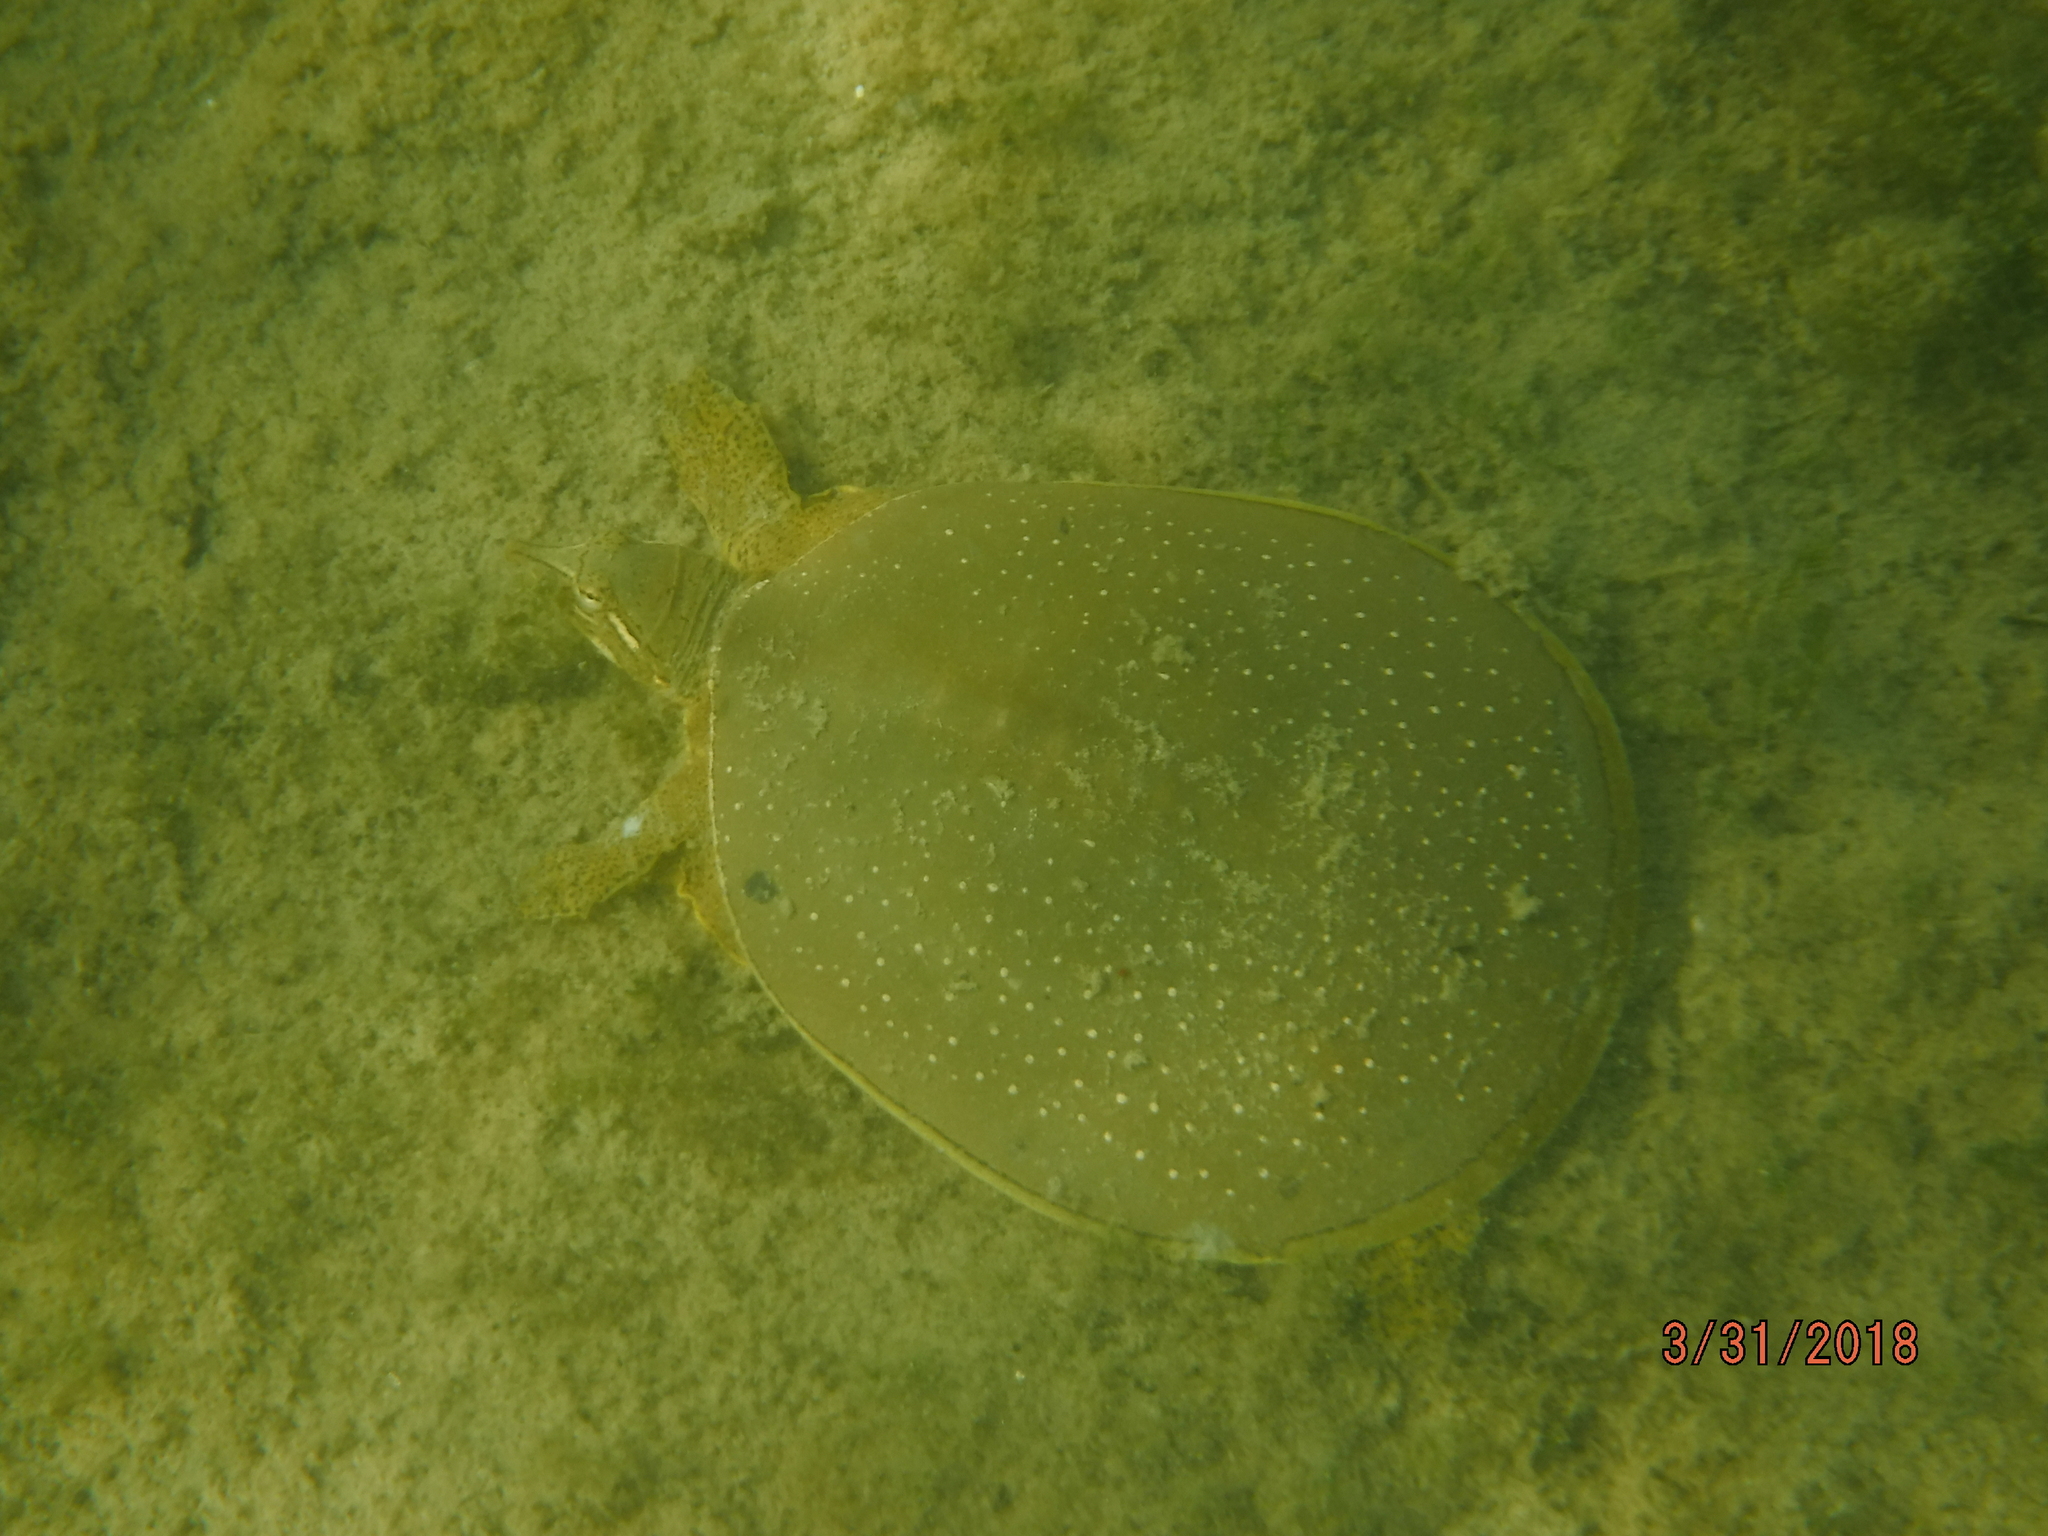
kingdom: Animalia
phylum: Chordata
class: Testudines
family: Trionychidae
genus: Apalone
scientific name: Apalone spinifera
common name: Spiny softshell turtle
